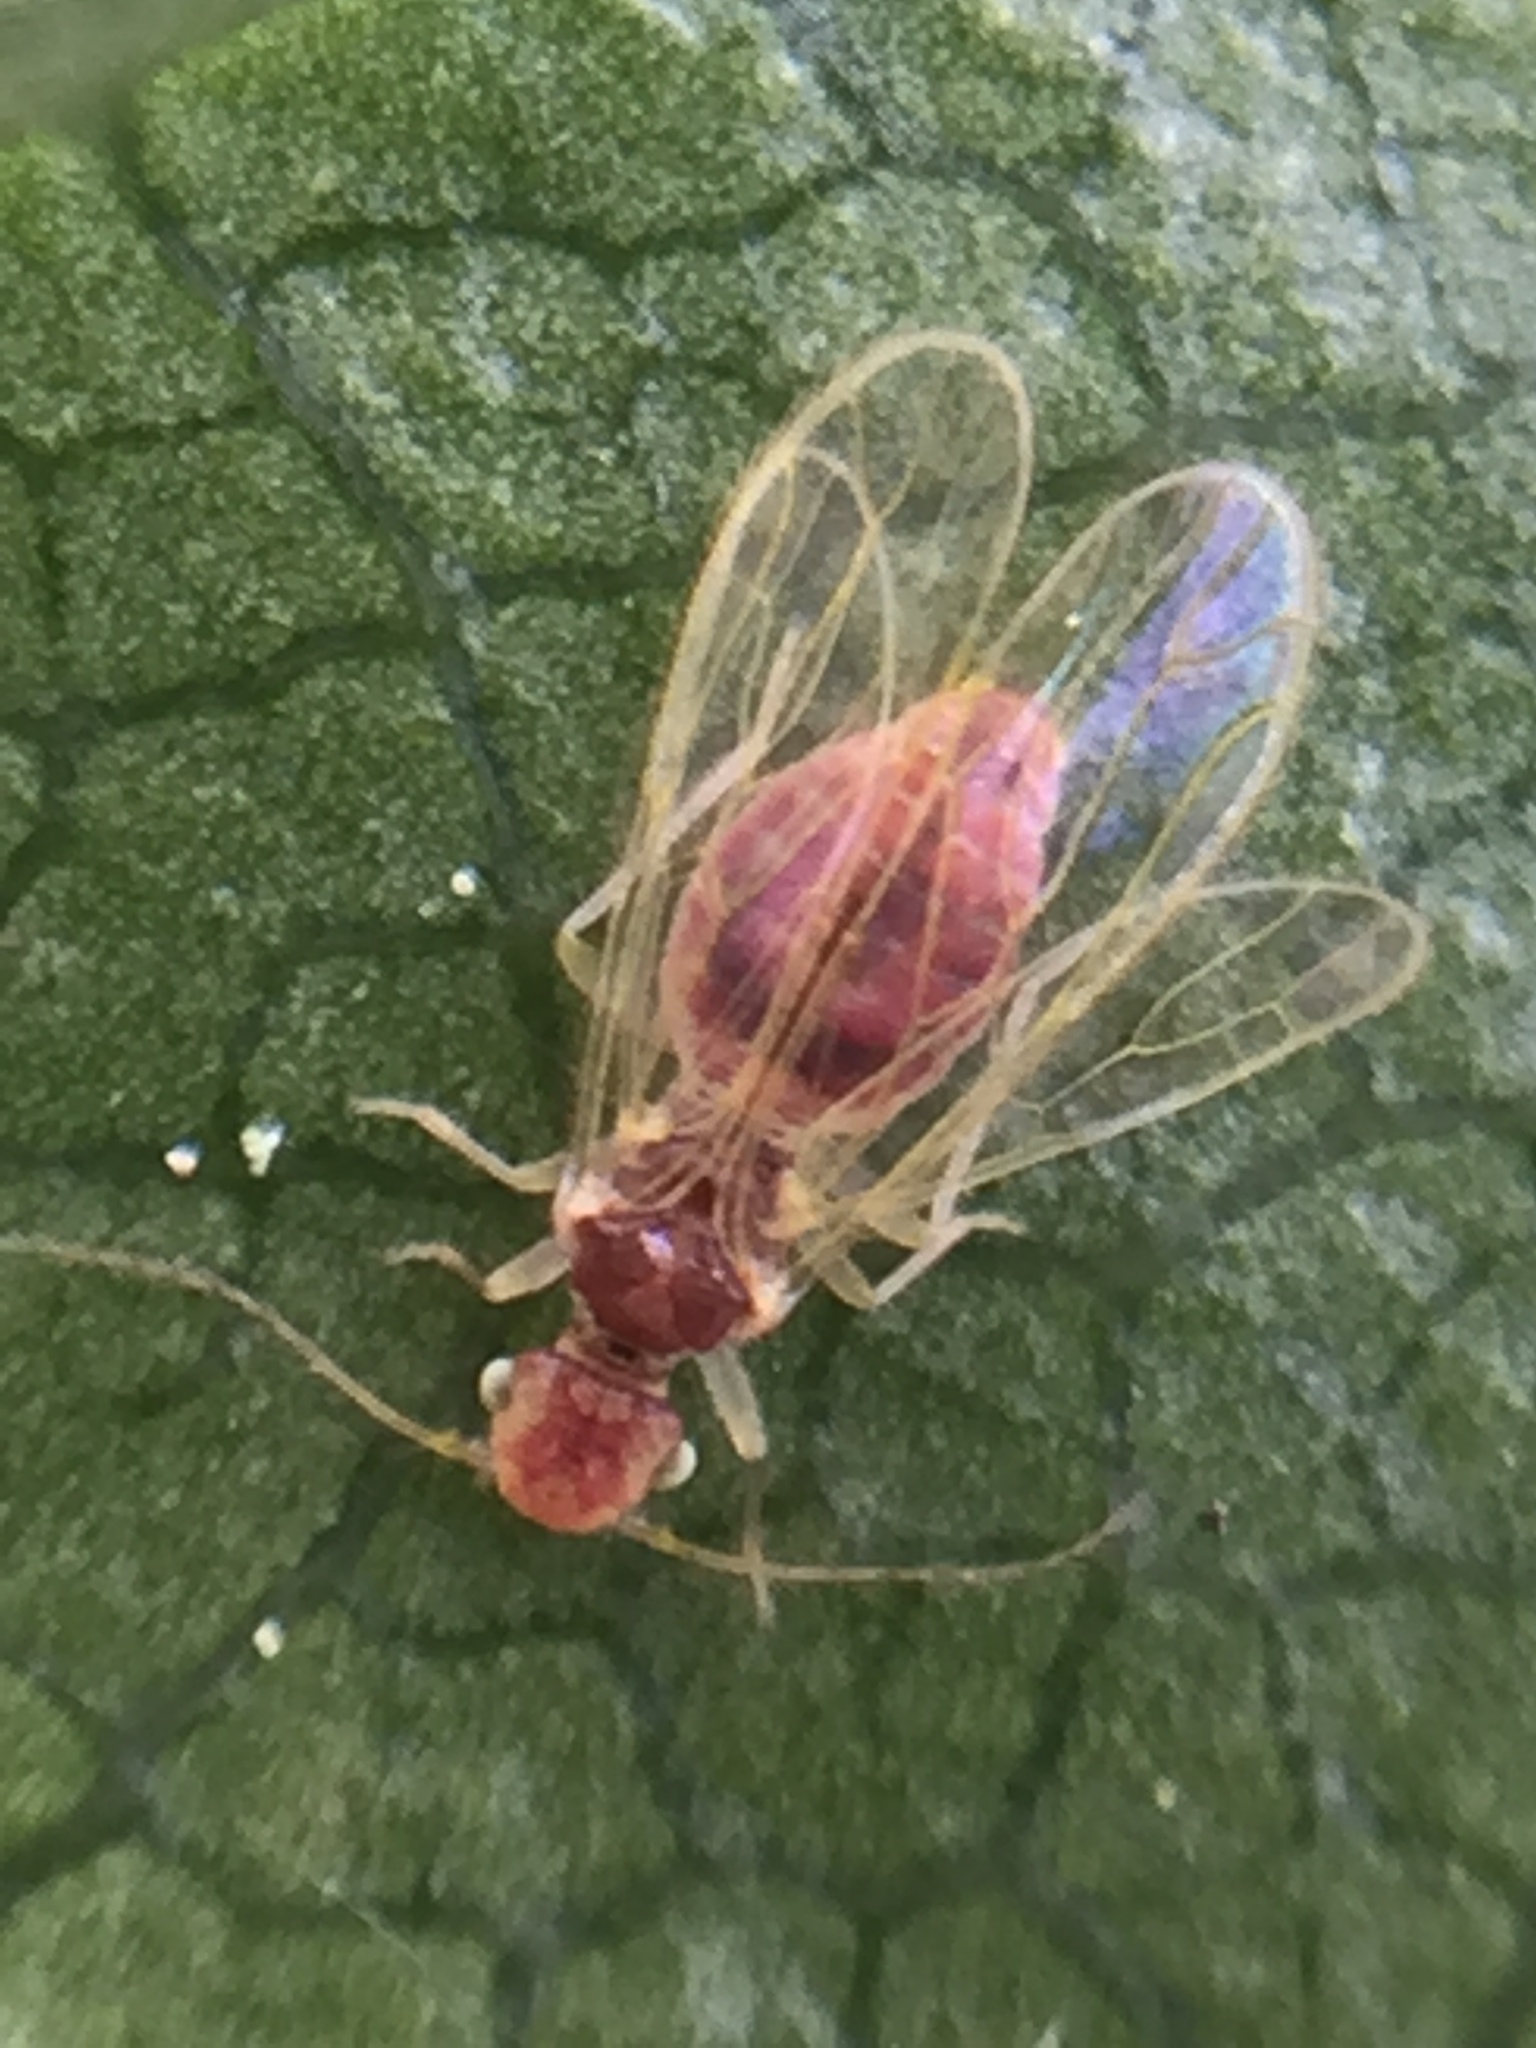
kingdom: Animalia
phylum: Arthropoda
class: Insecta
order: Psocodea
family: Pseudocaeciliidae
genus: Mepleres
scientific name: Mepleres watti
